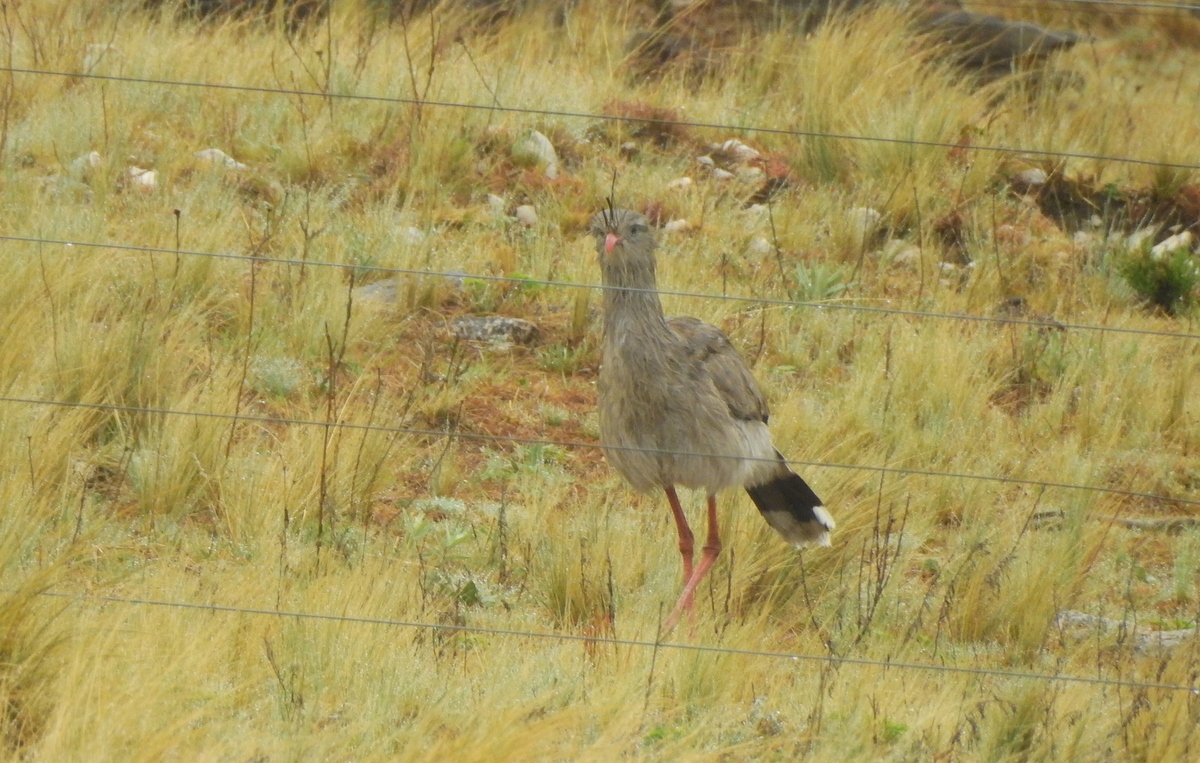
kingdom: Animalia
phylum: Chordata
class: Aves
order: Cariamiformes
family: Cariamidae
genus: Cariama
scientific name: Cariama cristata
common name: Red-legged seriema
